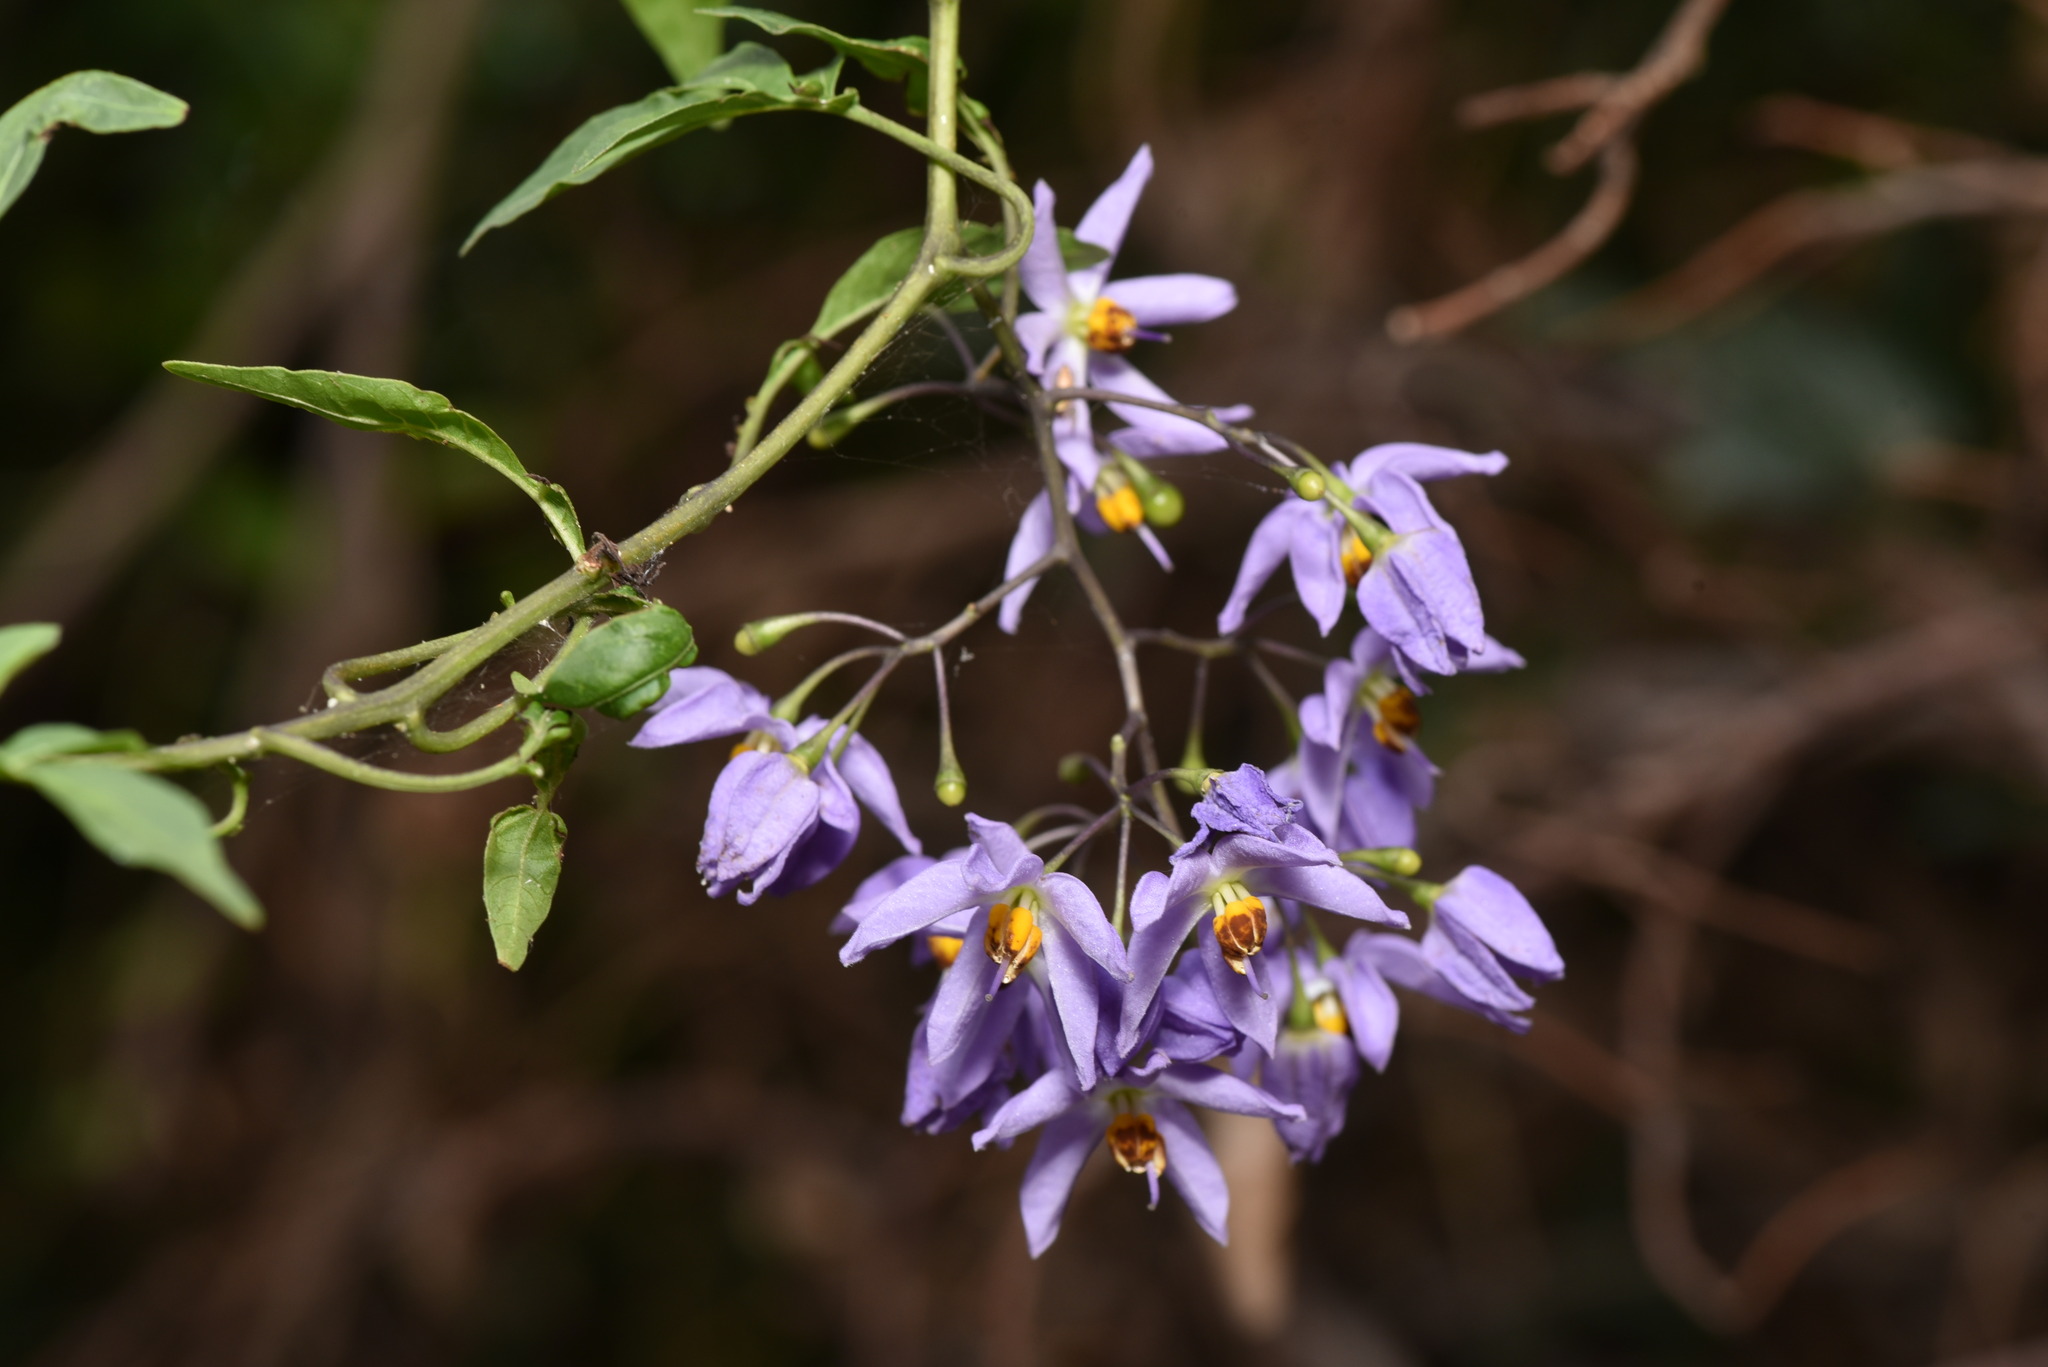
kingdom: Plantae
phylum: Tracheophyta
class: Magnoliopsida
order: Solanales
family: Solanaceae
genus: Solanum
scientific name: Solanum seaforthianum
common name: Brazilian nightshade
